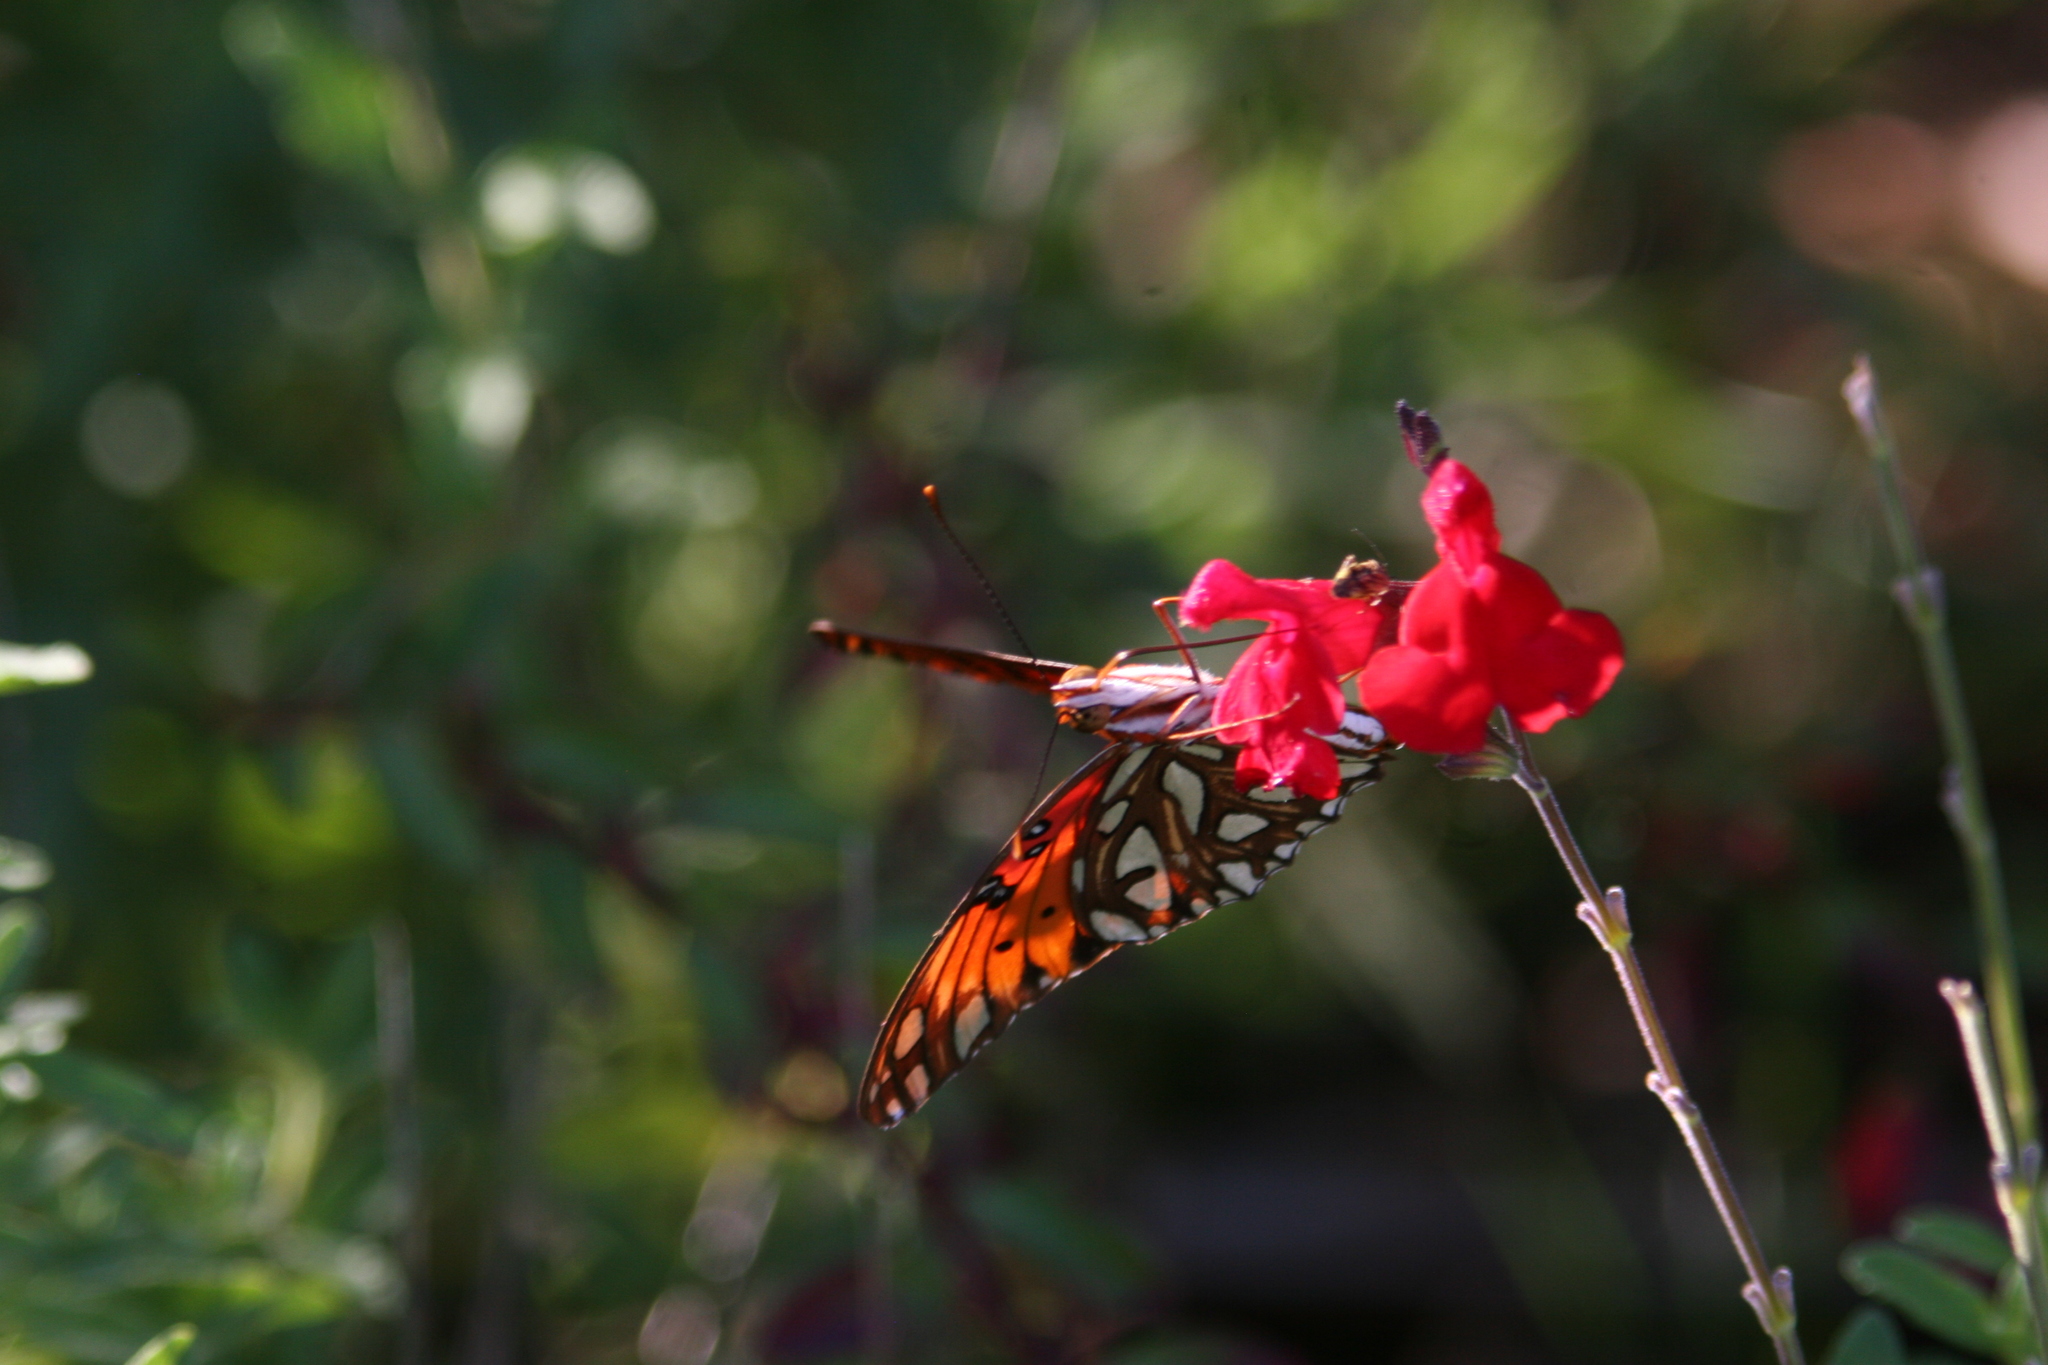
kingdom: Animalia
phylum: Arthropoda
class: Insecta
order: Lepidoptera
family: Nymphalidae
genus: Dione
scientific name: Dione vanillae
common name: Gulf fritillary
